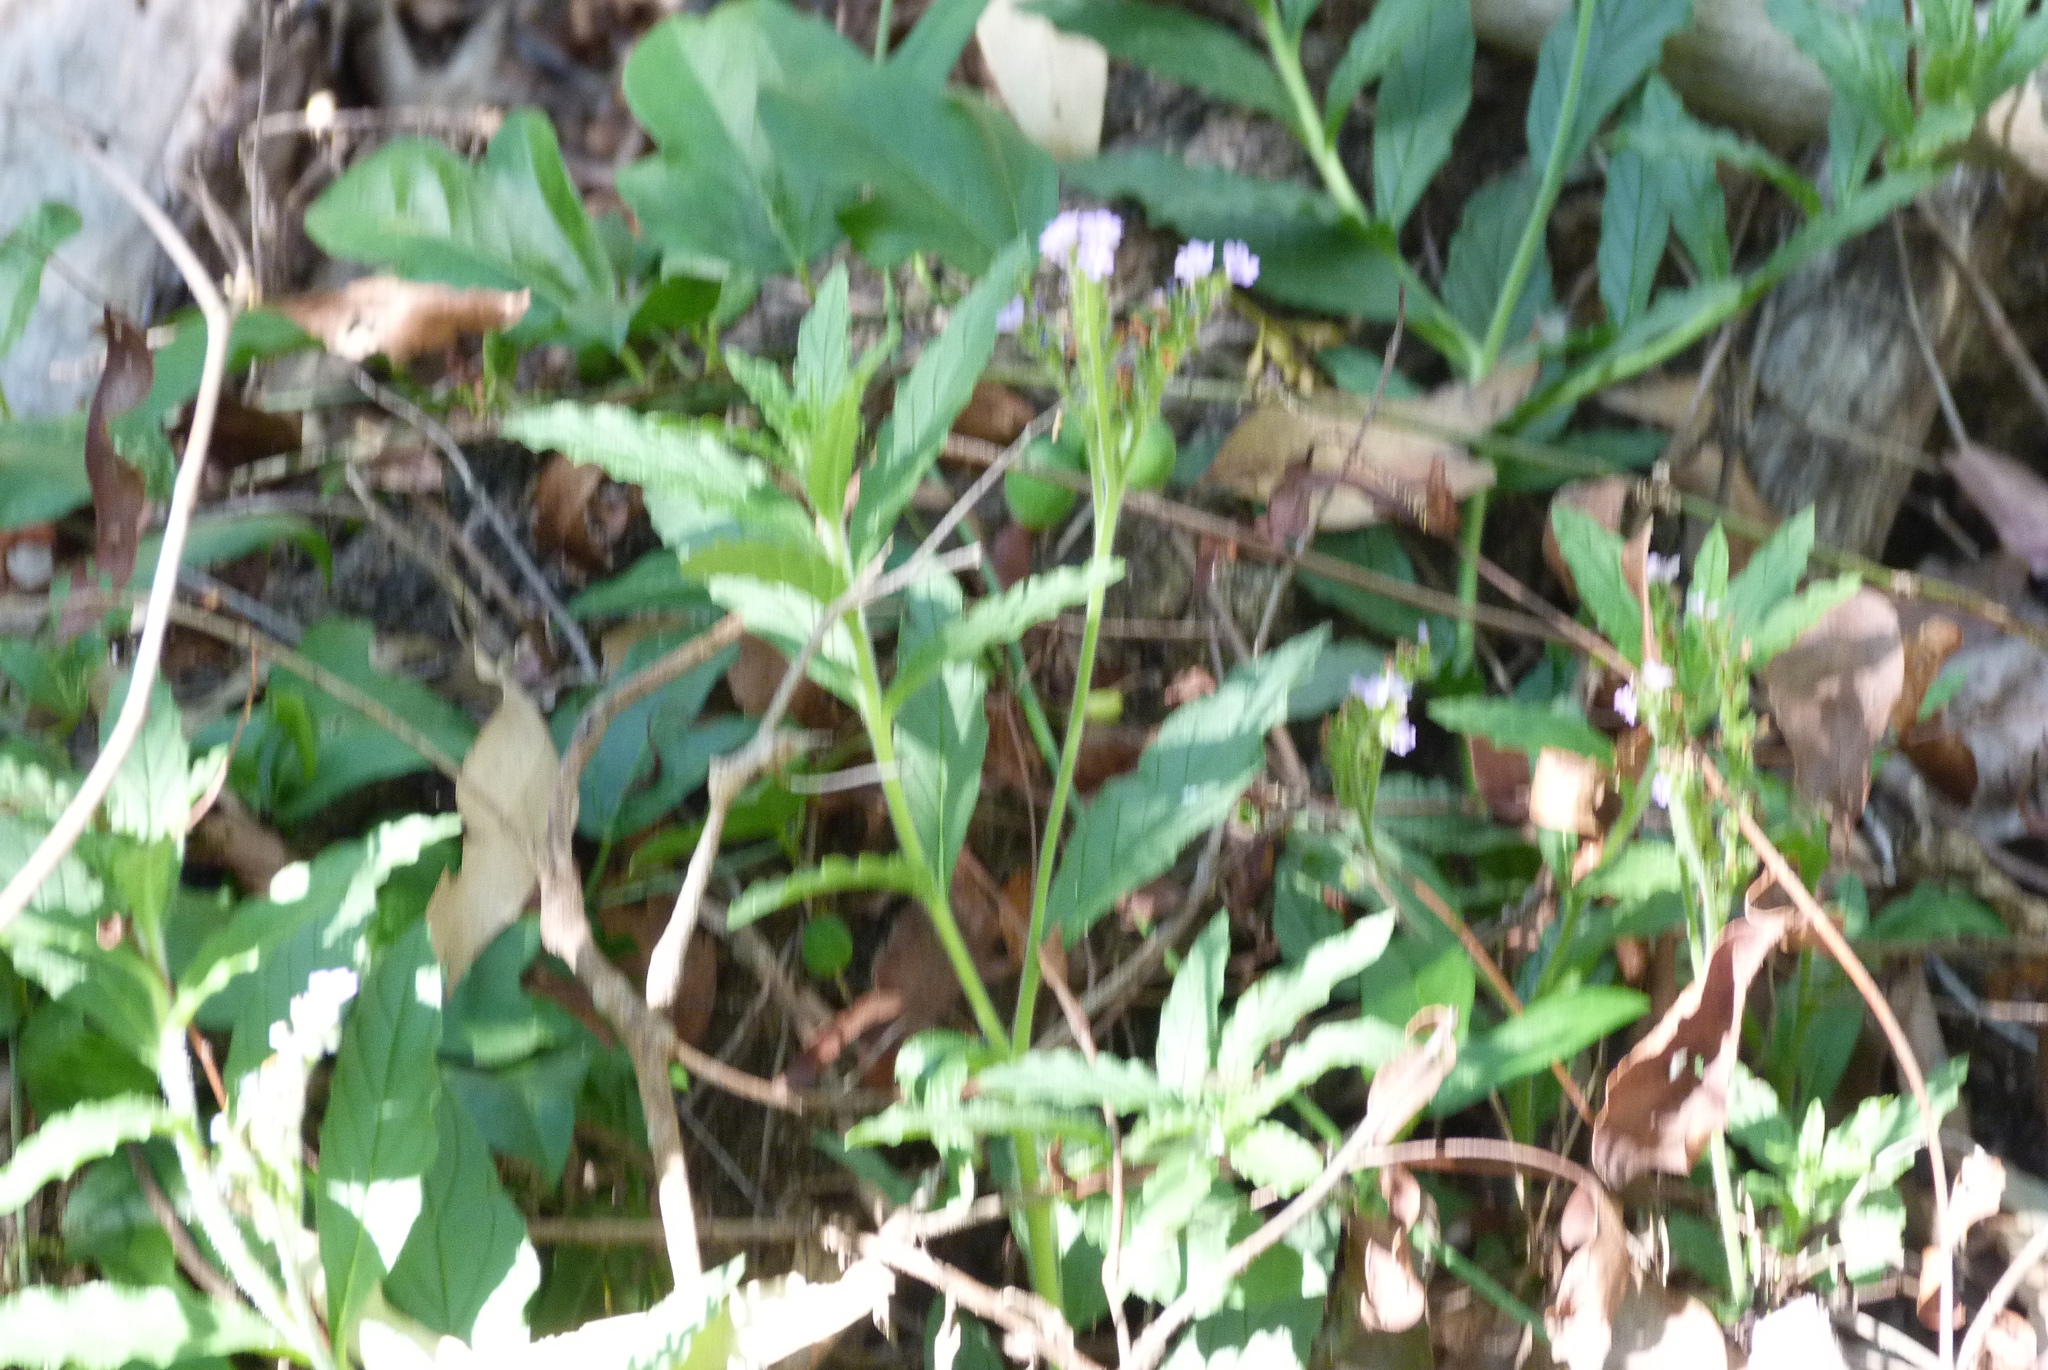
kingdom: Plantae
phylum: Tracheophyta
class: Magnoliopsida
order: Boraginales
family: Heliotropiaceae
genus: Heliotropium
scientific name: Heliotropium amplexicaule
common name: Clasping heliotrope
